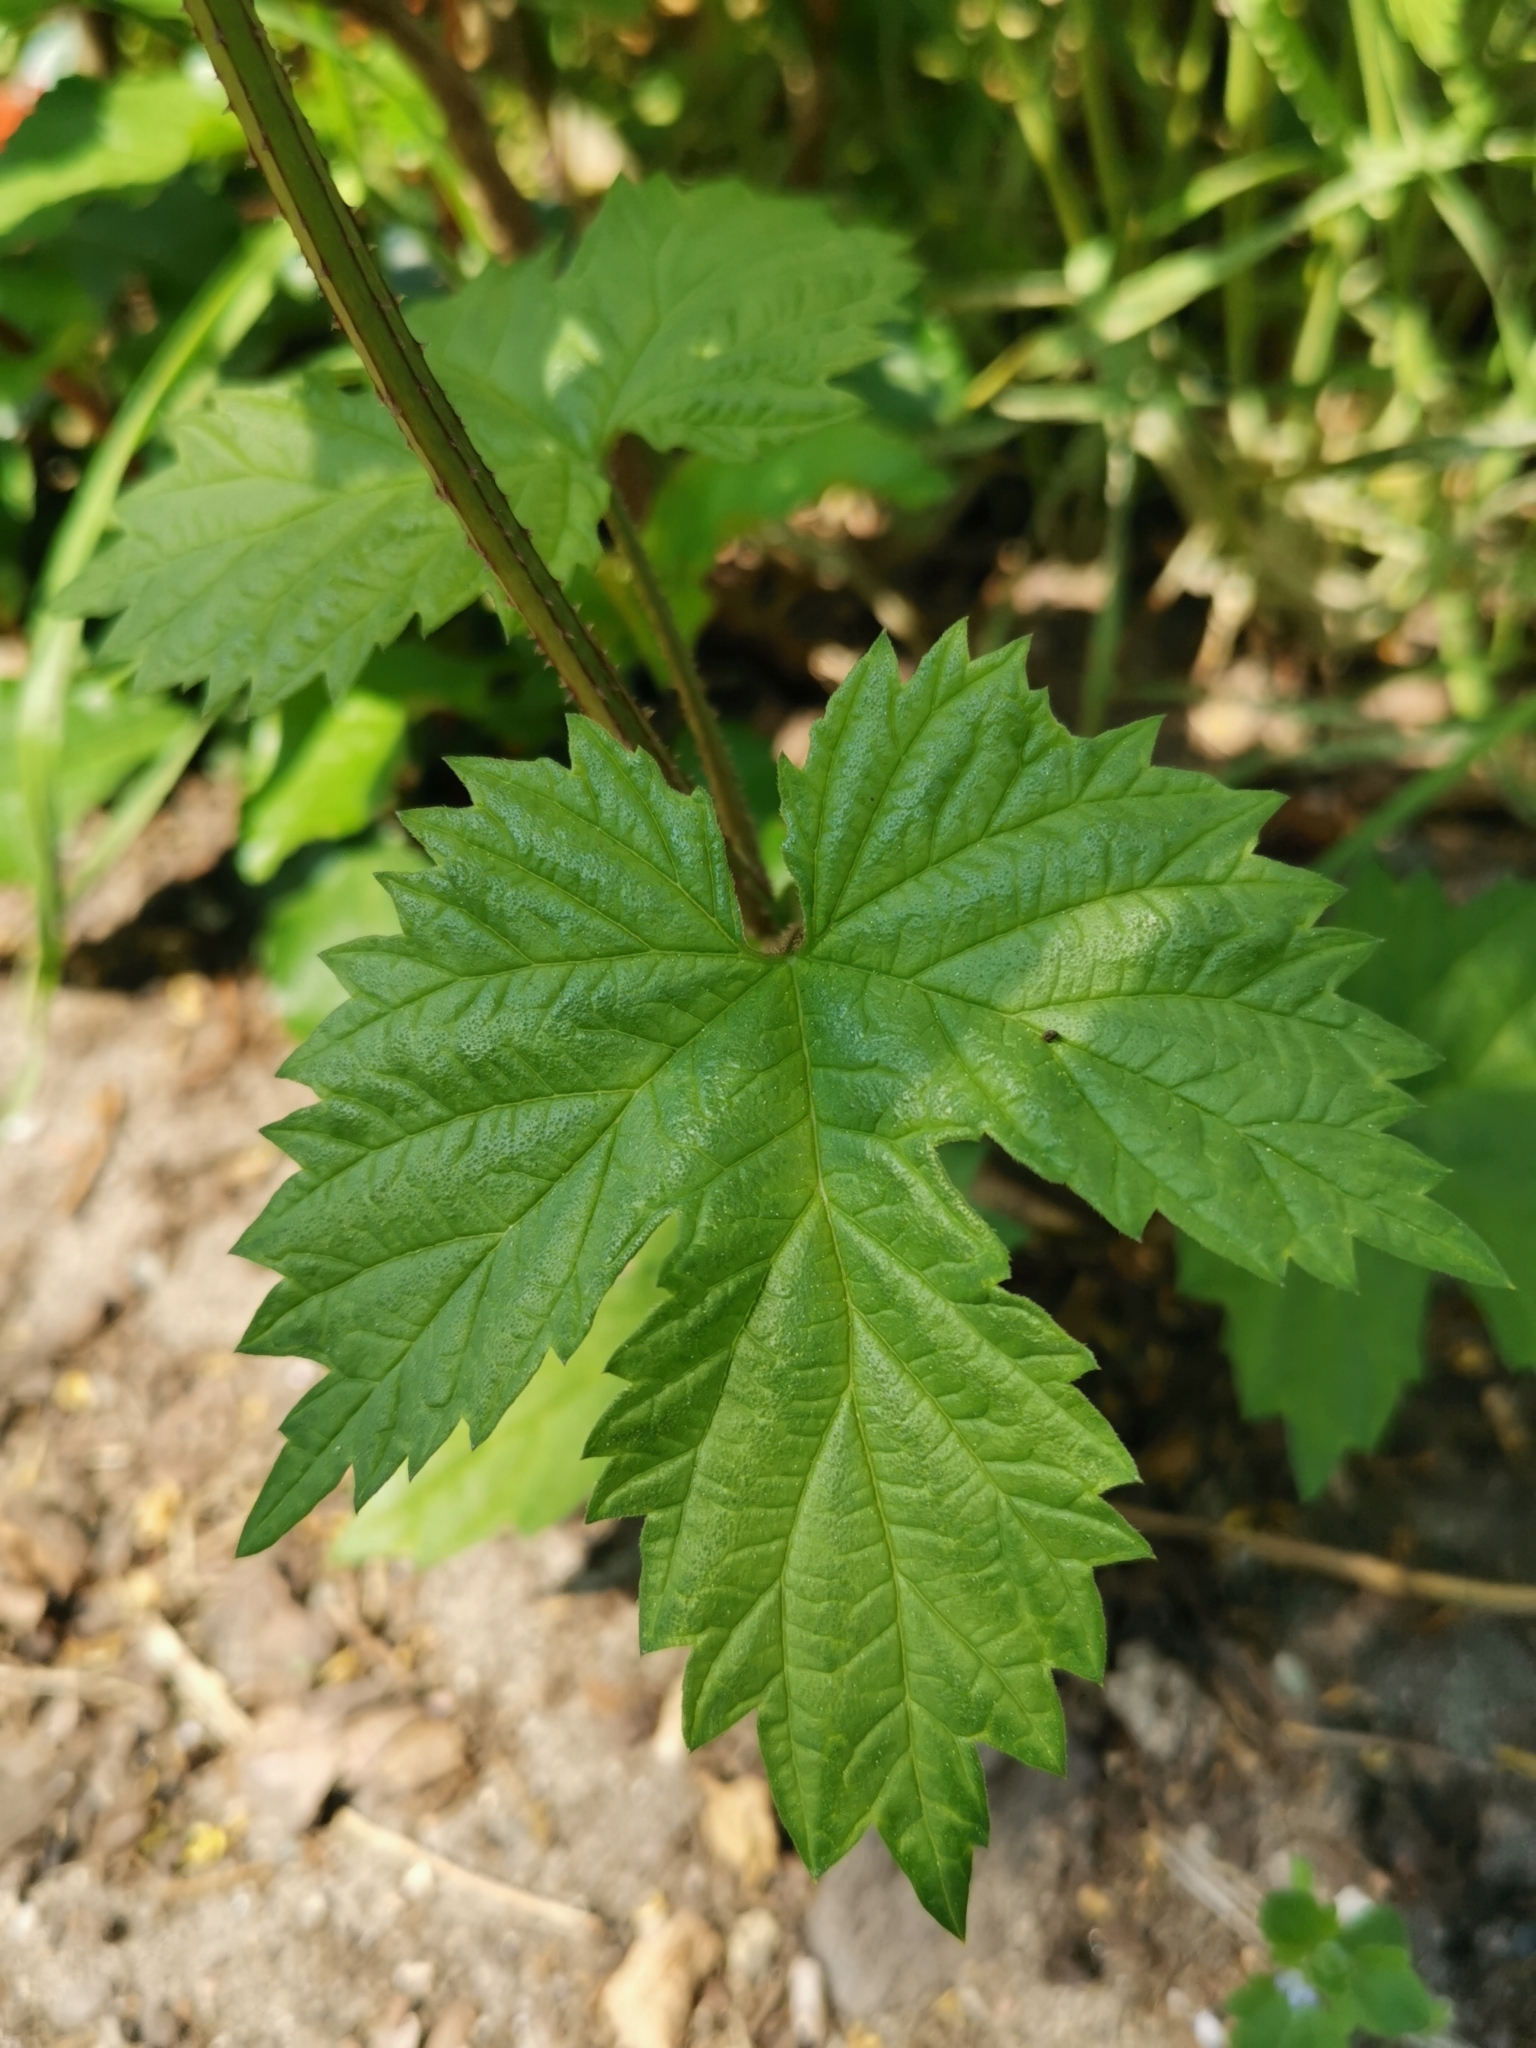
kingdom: Plantae
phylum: Tracheophyta
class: Magnoliopsida
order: Rosales
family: Cannabaceae
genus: Humulus
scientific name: Humulus lupulus
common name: Hop
